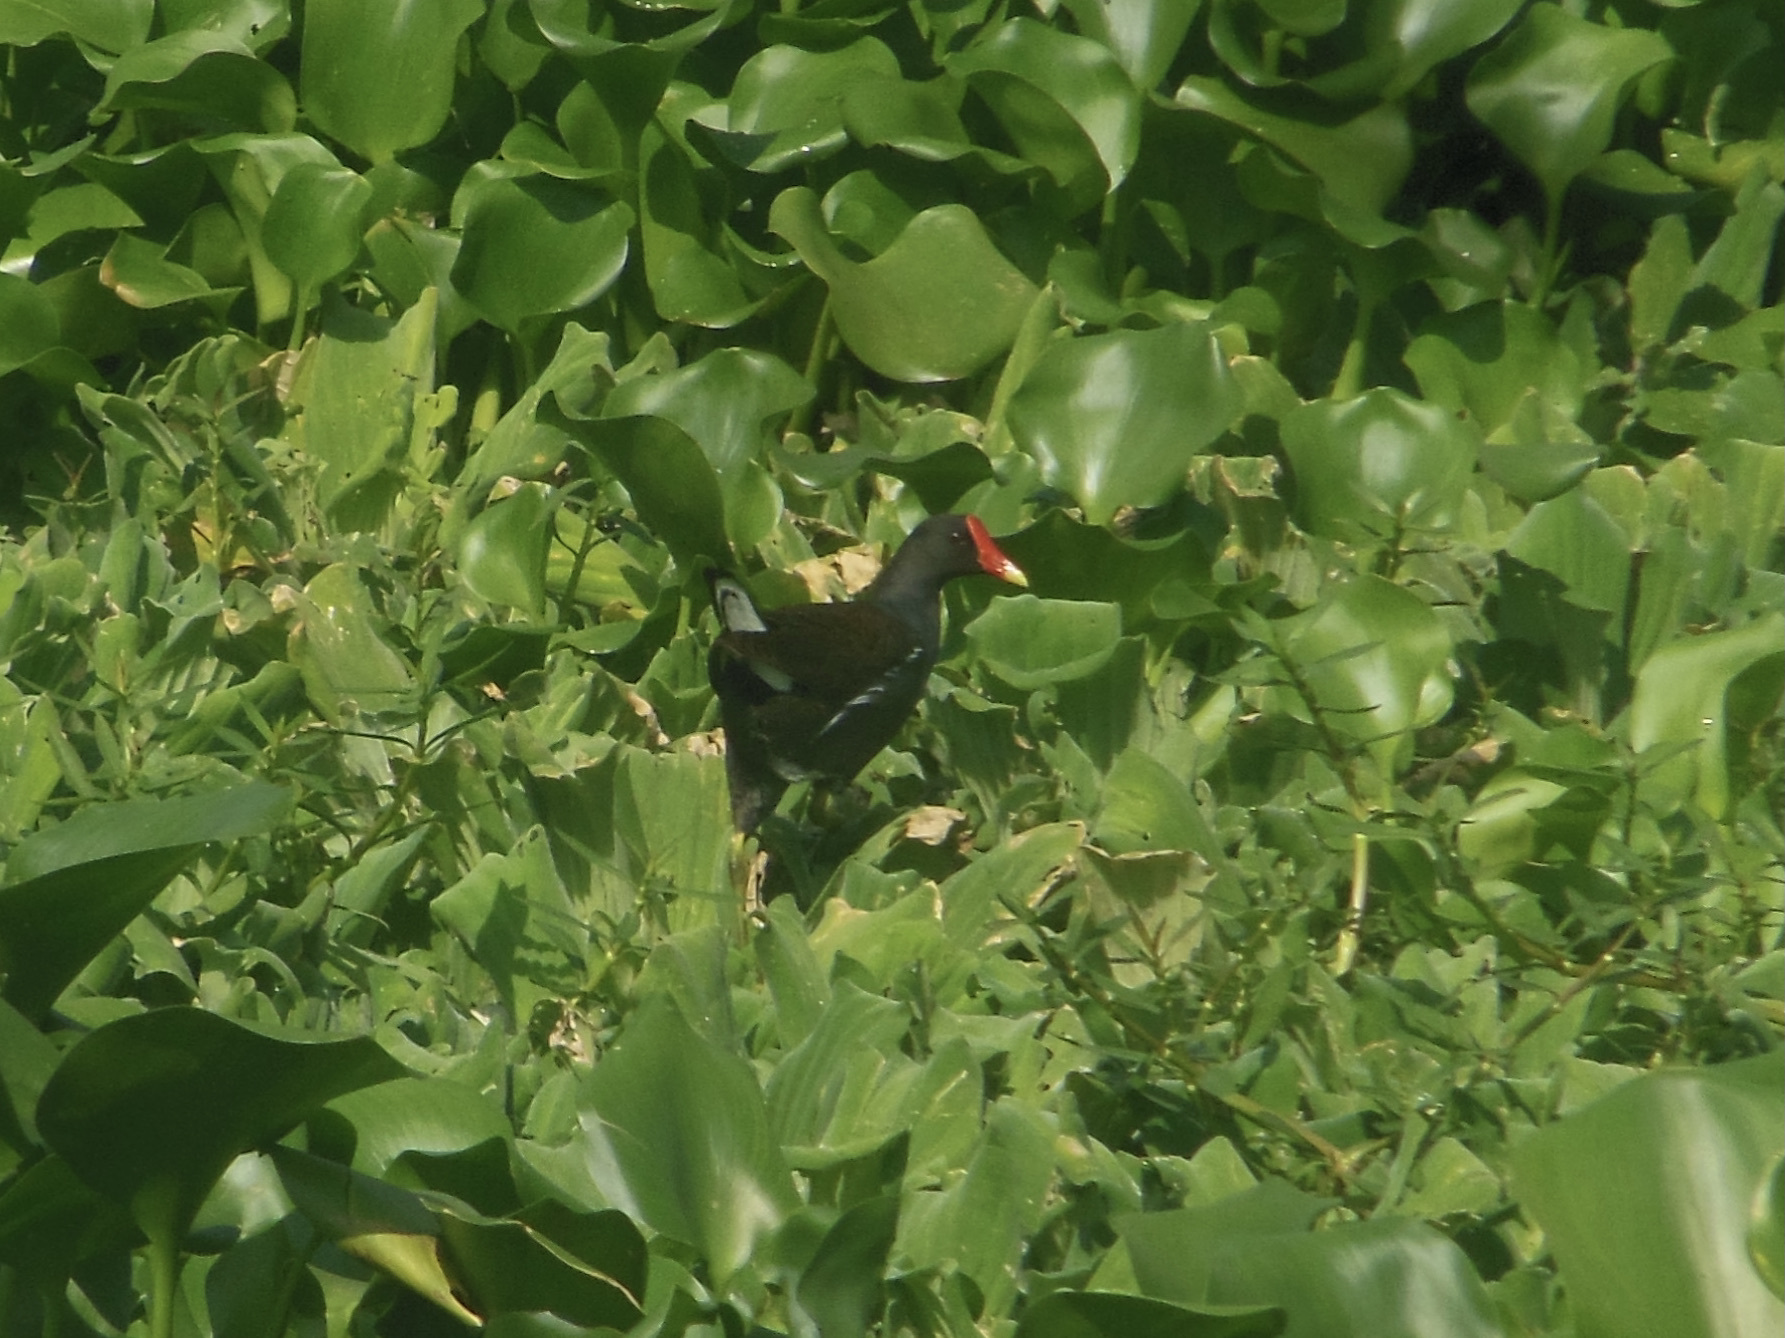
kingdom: Animalia
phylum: Chordata
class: Aves
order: Gruiformes
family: Rallidae
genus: Gallinula
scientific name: Gallinula chloropus
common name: Common moorhen
